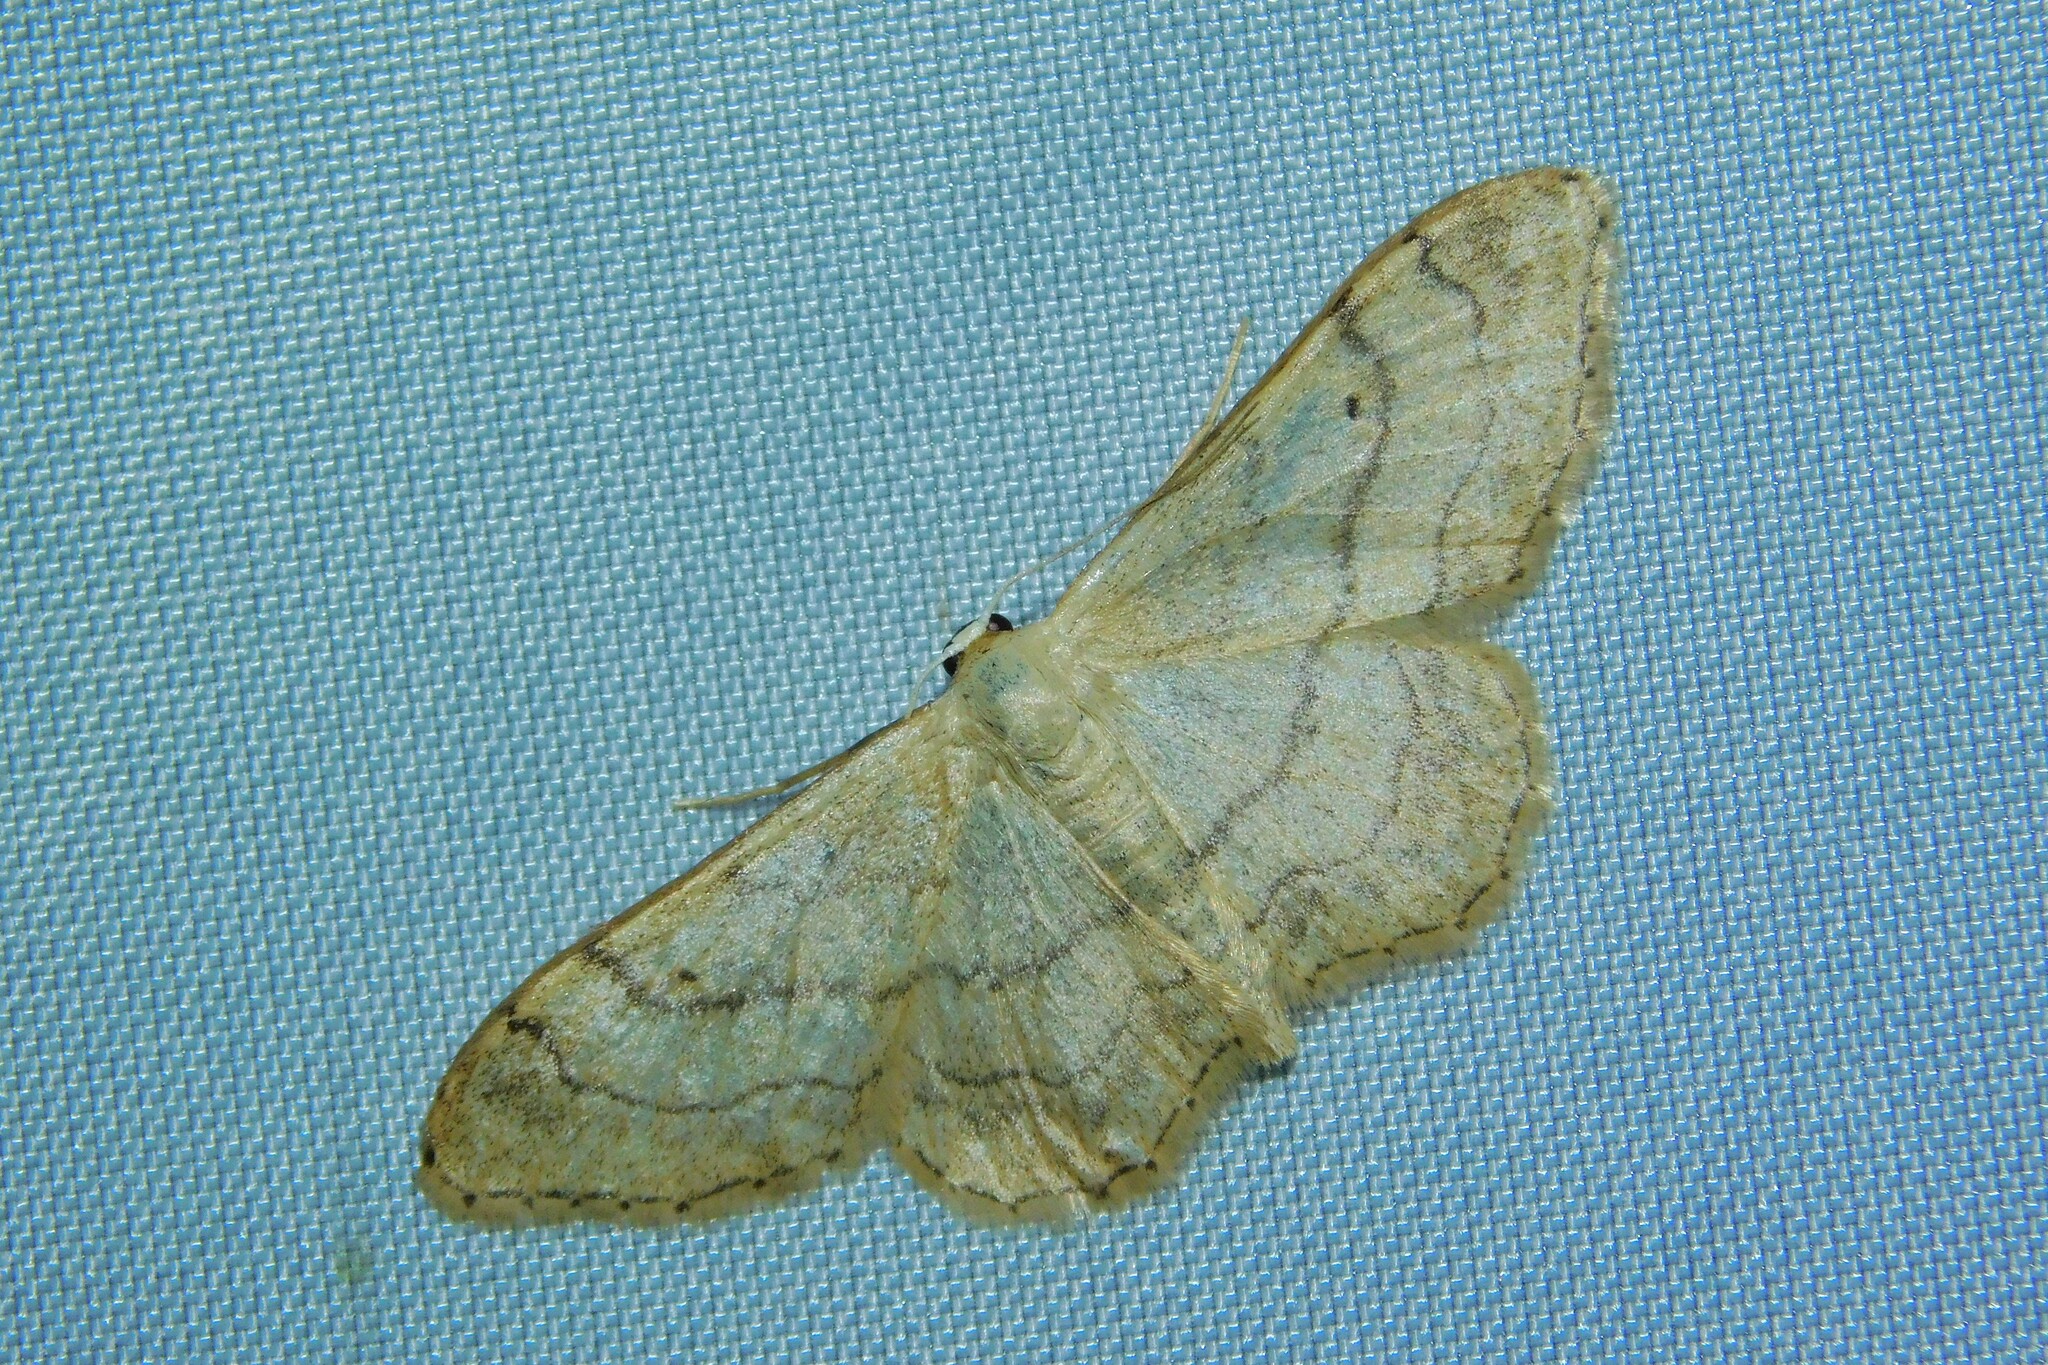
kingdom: Animalia
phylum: Arthropoda
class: Insecta
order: Lepidoptera
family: Geometridae
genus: Idaea
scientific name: Idaea aversata
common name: Riband wave
